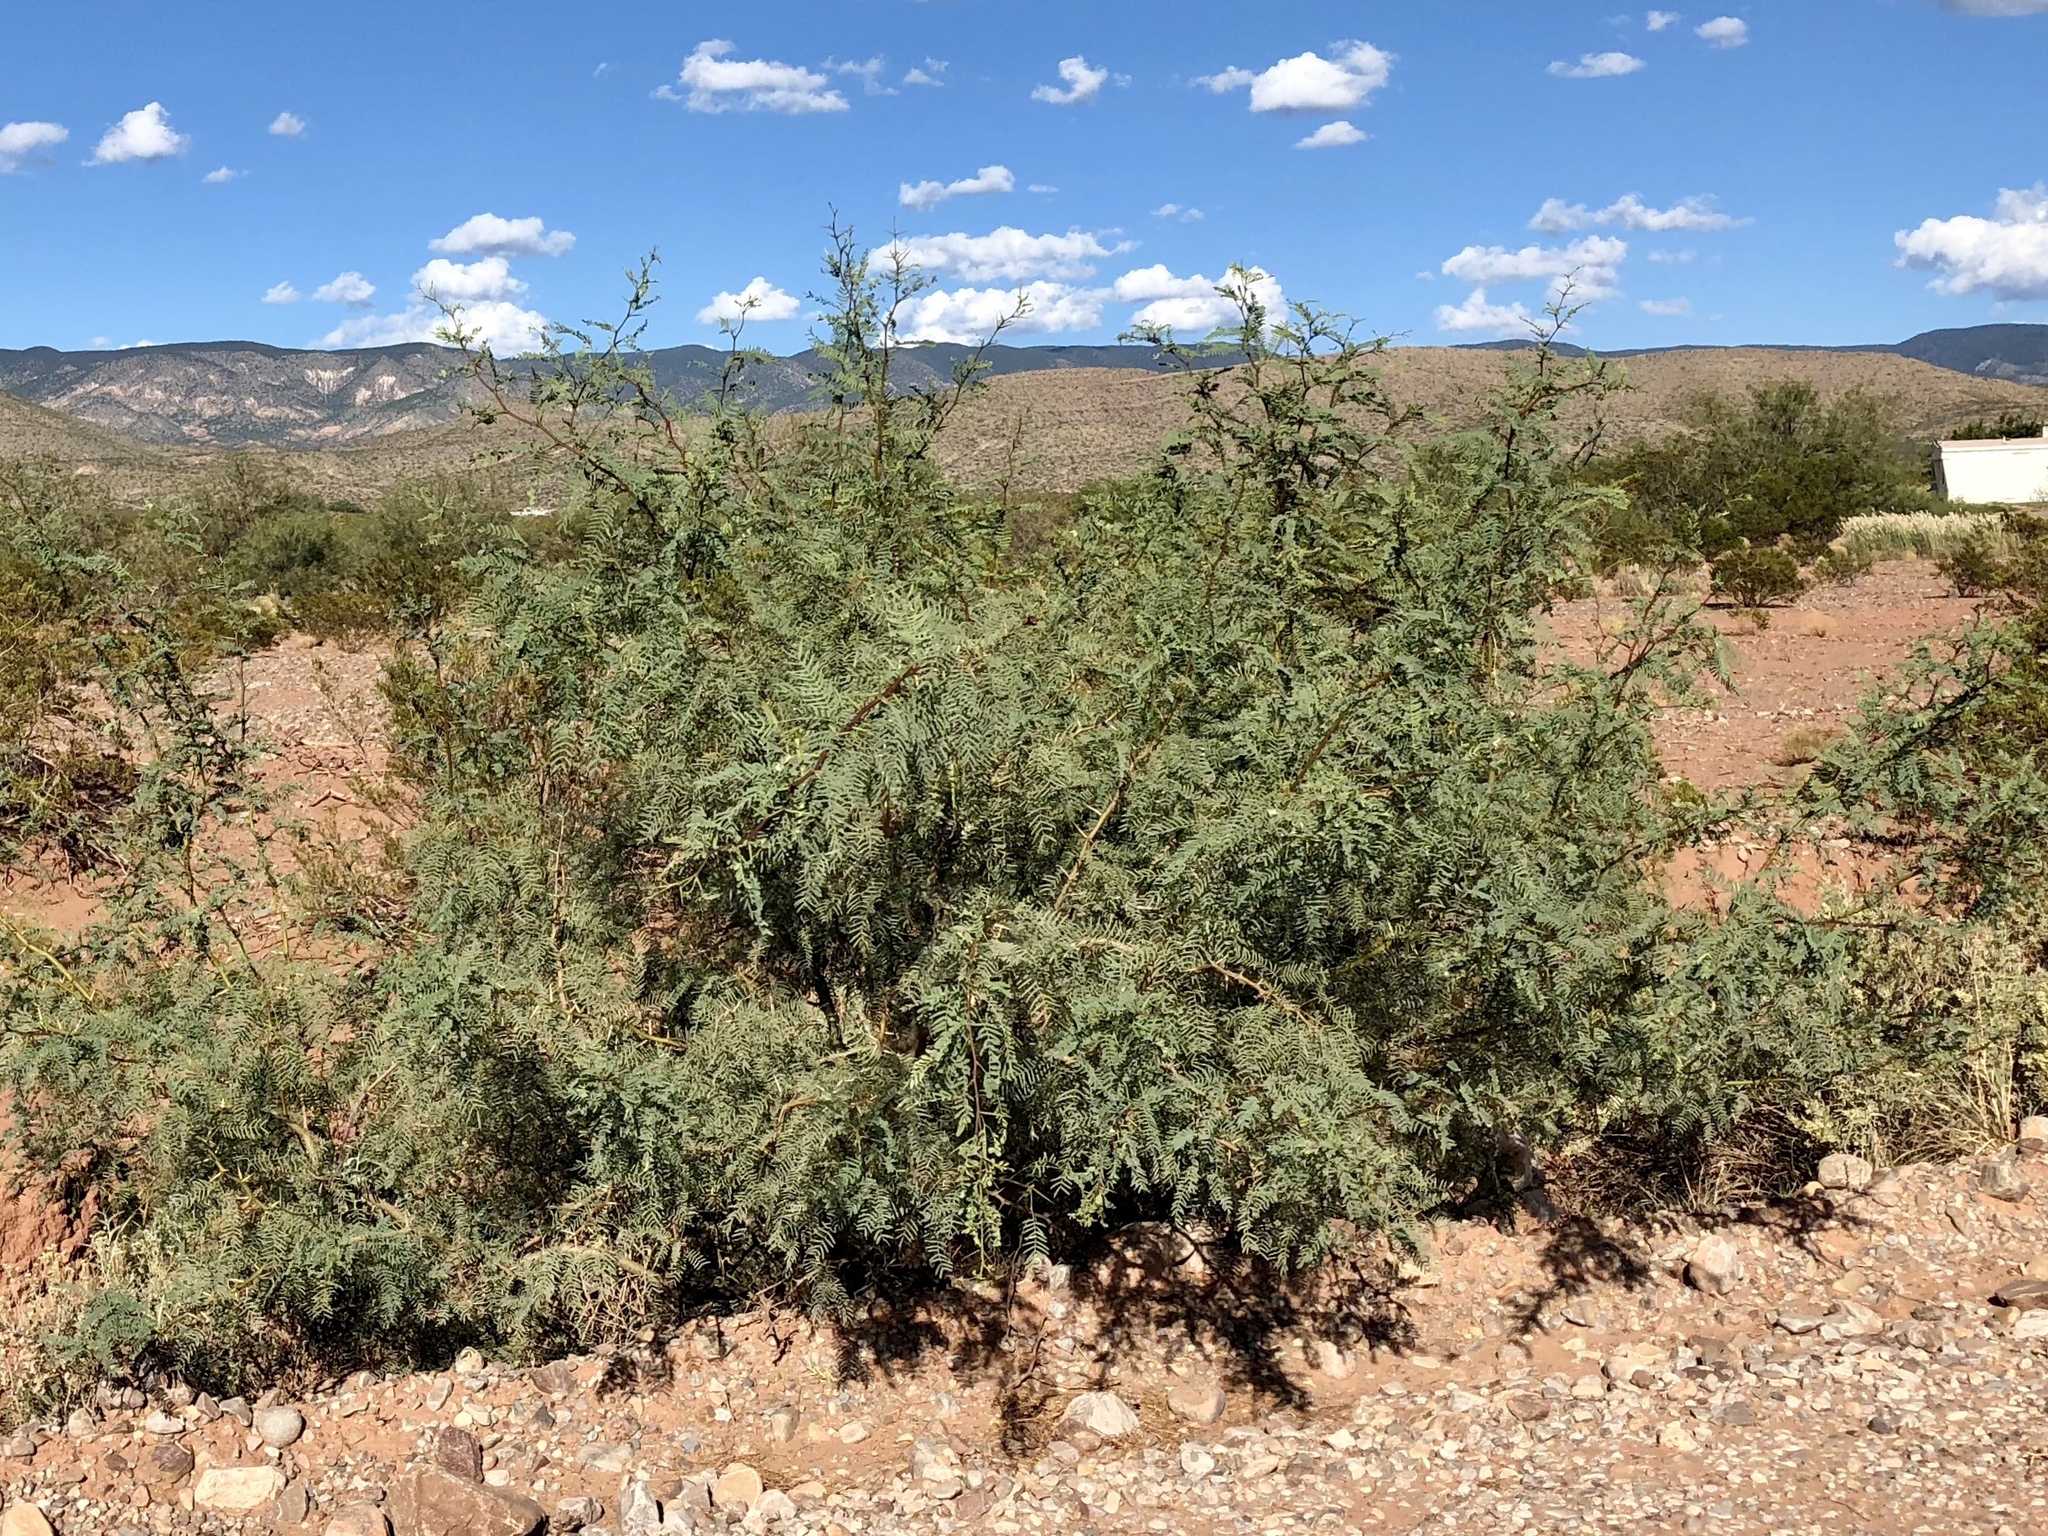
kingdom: Plantae
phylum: Tracheophyta
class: Magnoliopsida
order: Fabales
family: Fabaceae
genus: Prosopis
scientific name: Prosopis glandulosa
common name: Honey mesquite
